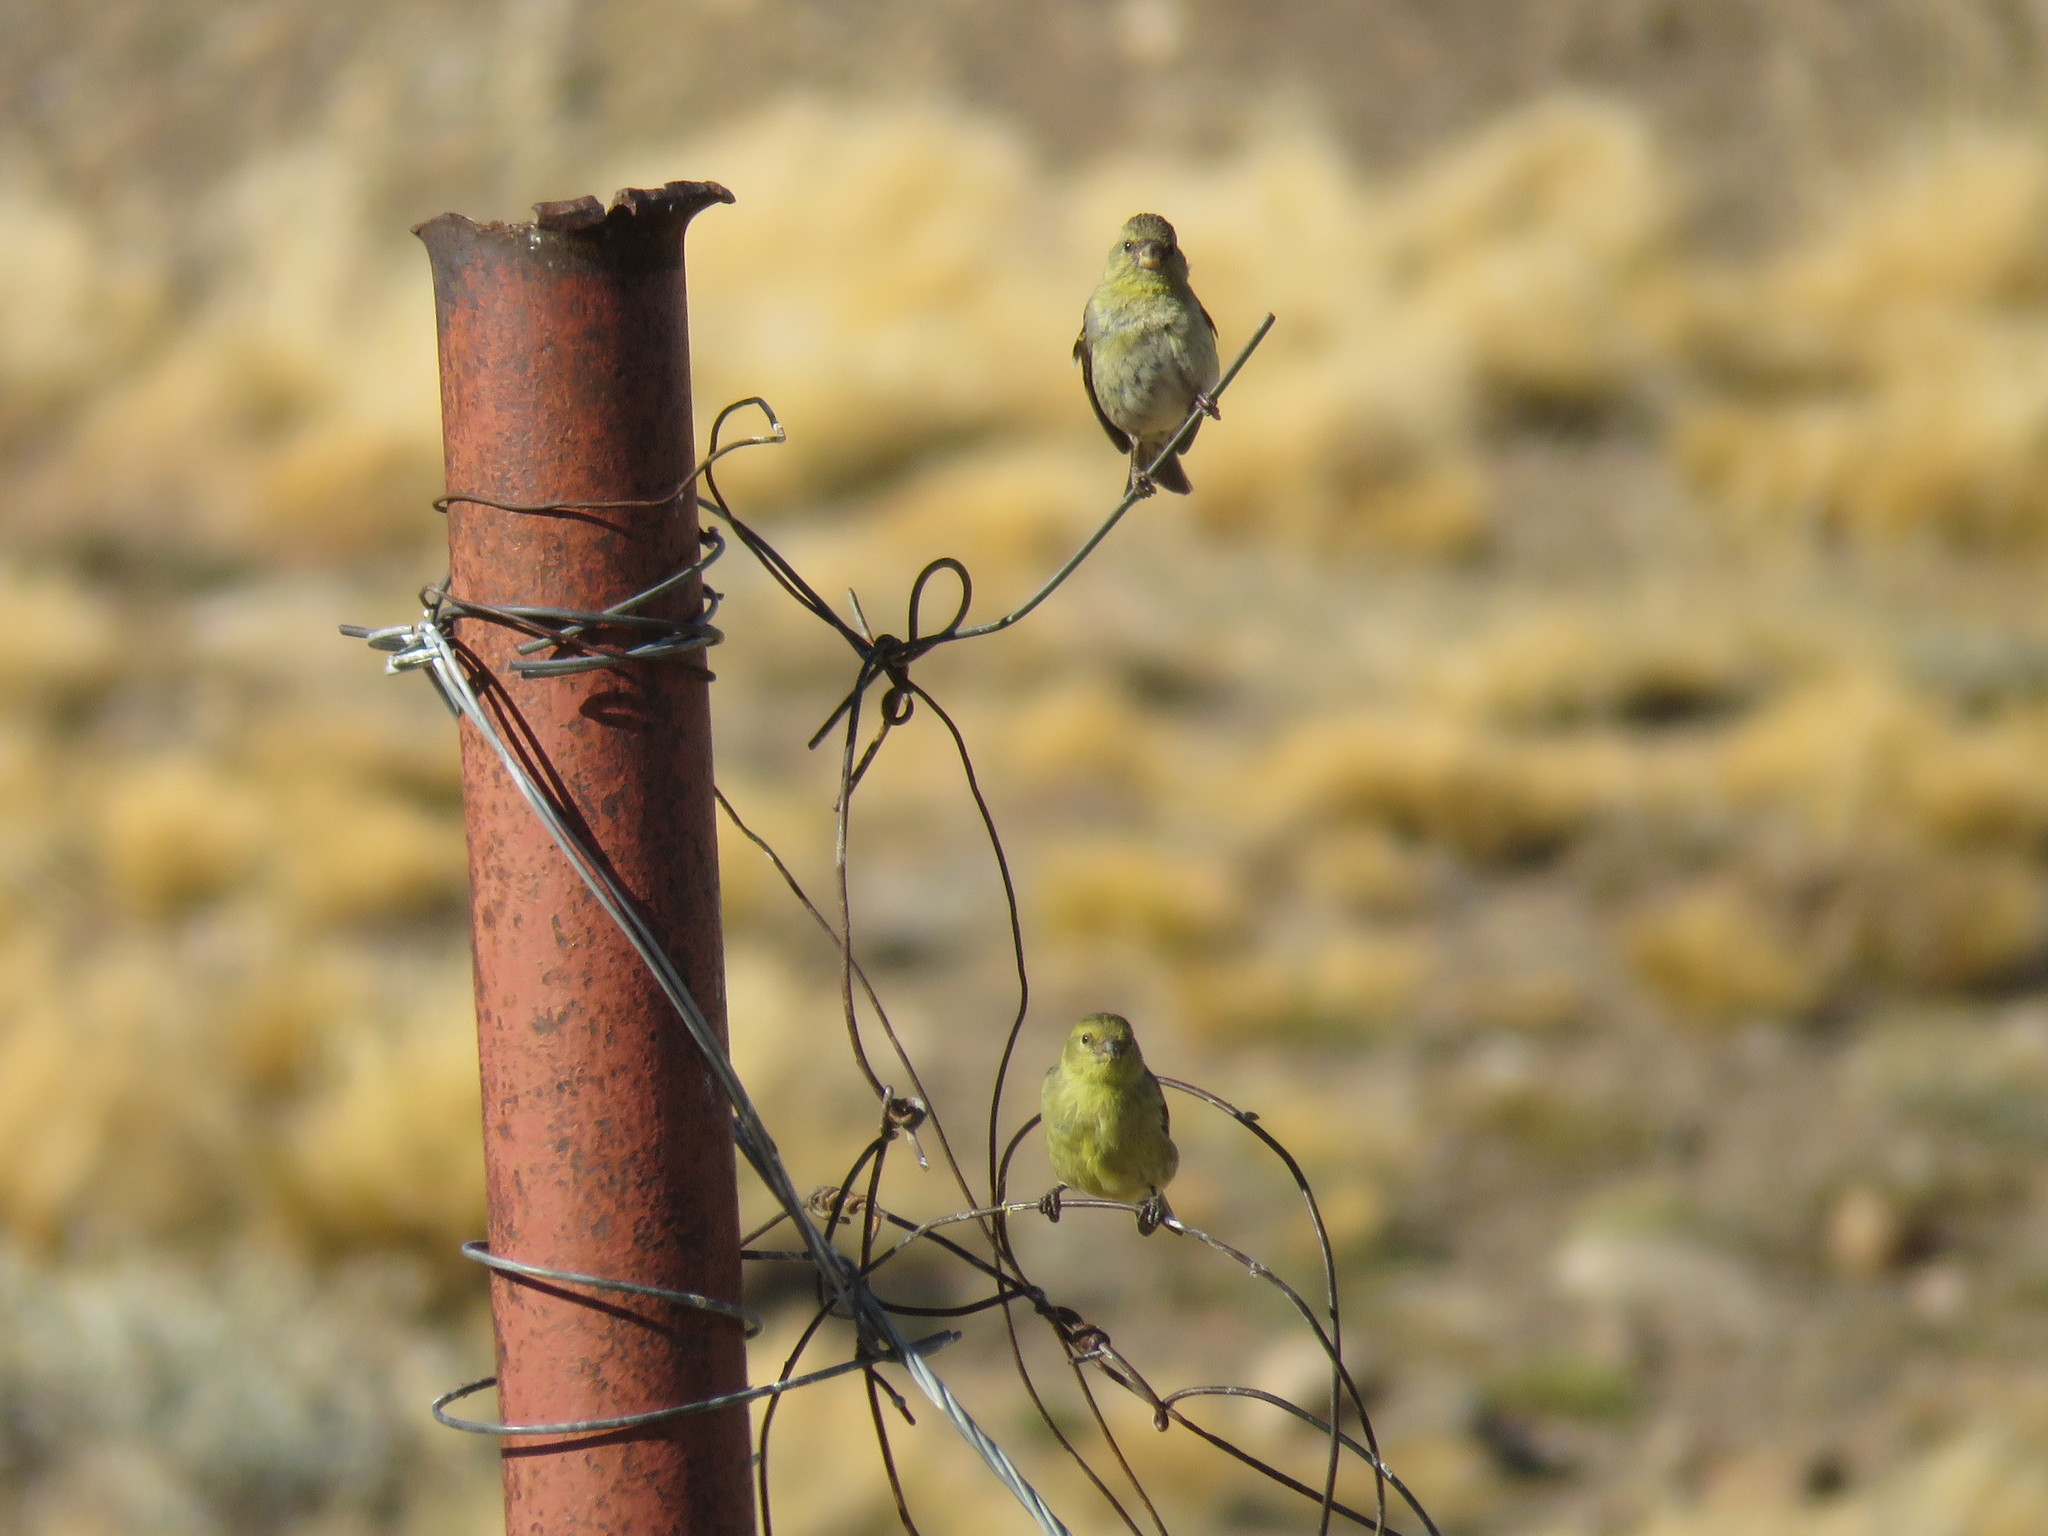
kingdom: Animalia
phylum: Chordata
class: Aves
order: Passeriformes
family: Fringillidae
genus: Spinus
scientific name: Spinus barbatus
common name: Black-chinned siskin
